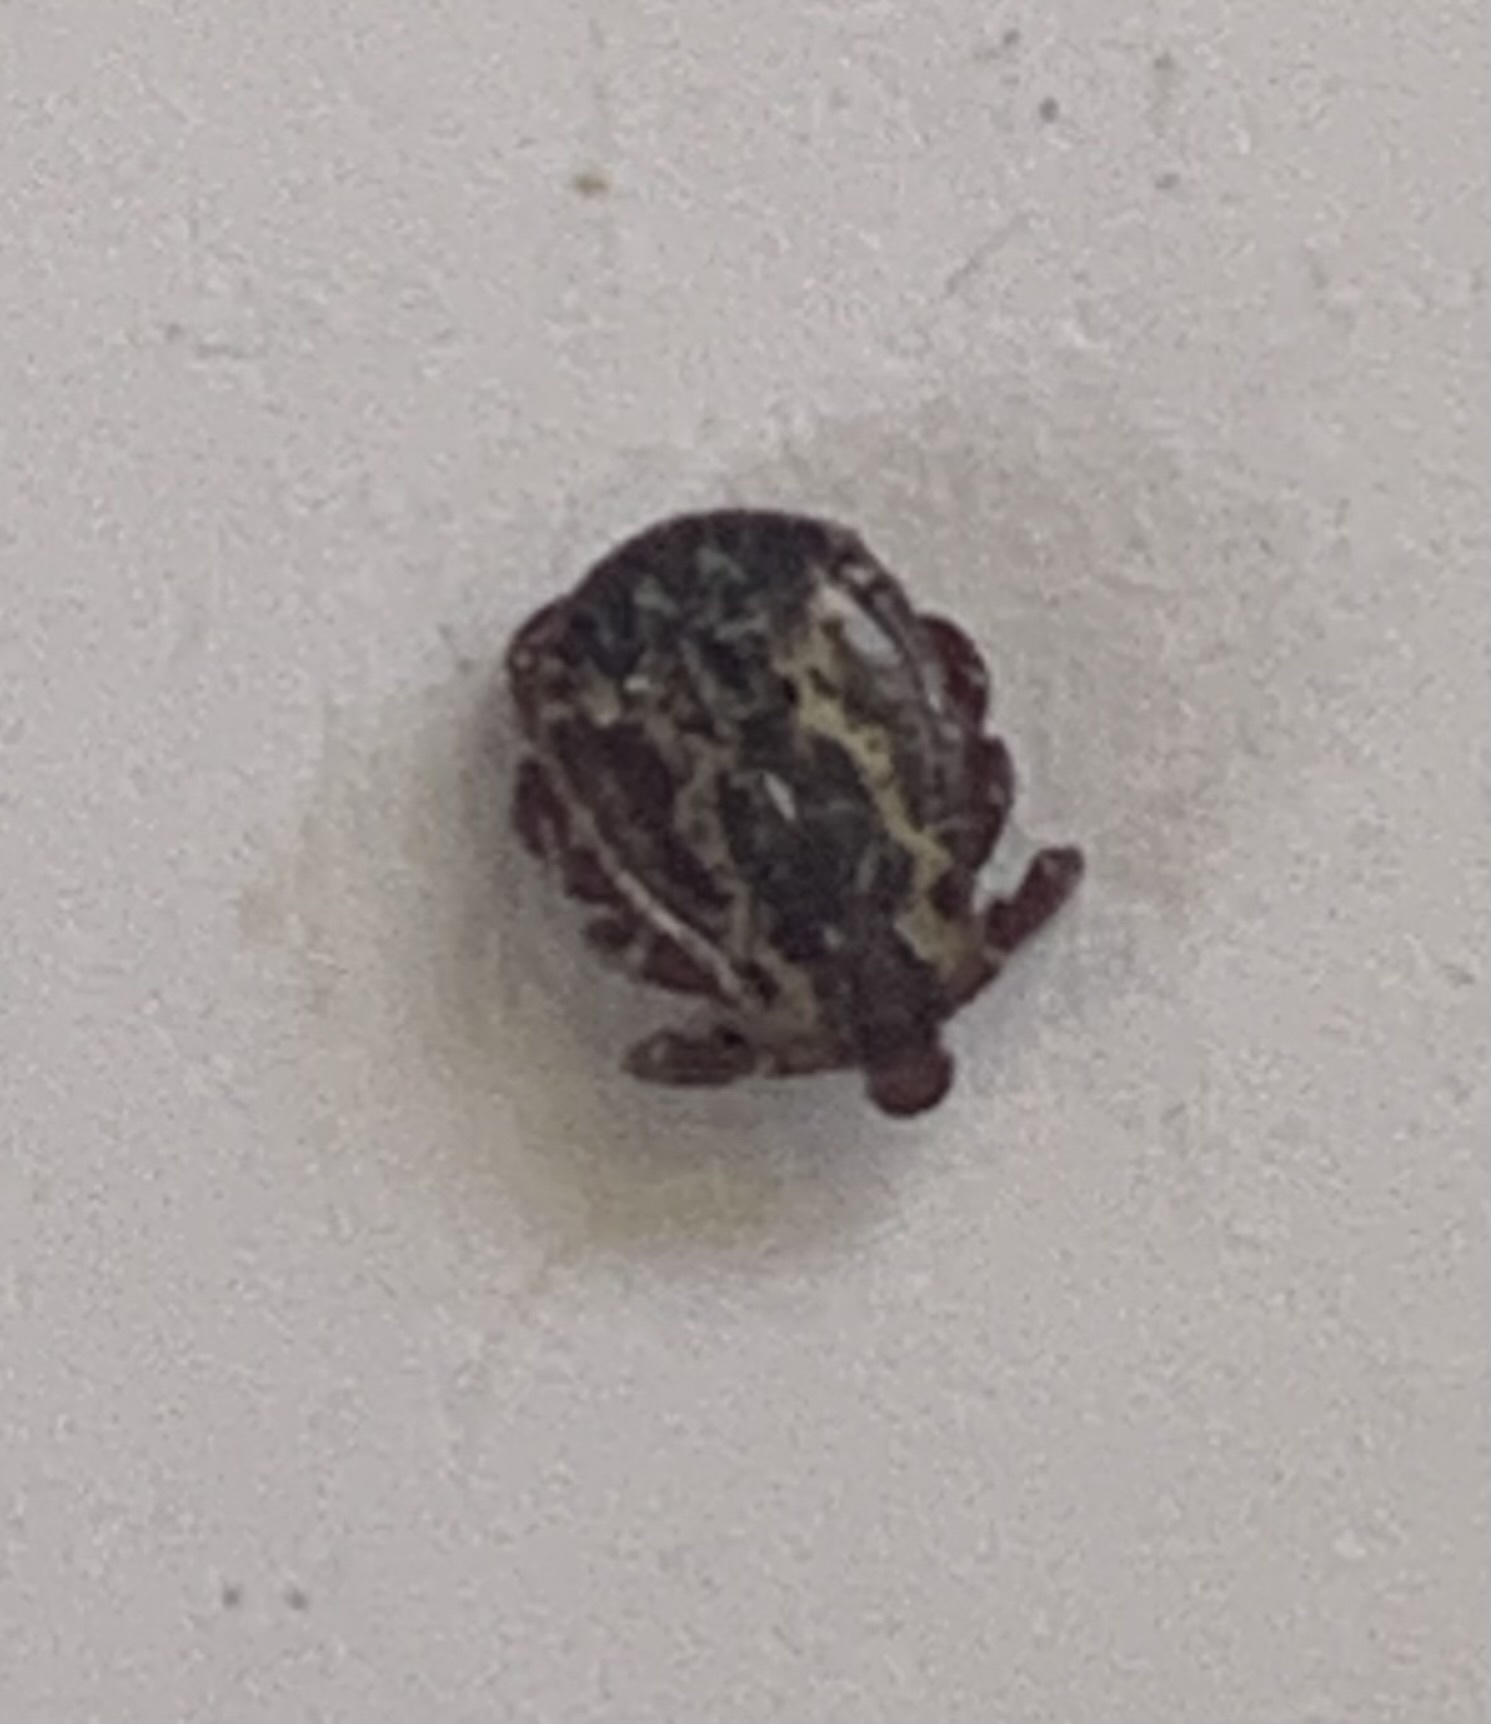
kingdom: Animalia
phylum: Arthropoda
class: Arachnida
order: Ixodida
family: Ixodidae
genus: Dermacentor
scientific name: Dermacentor variabilis
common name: American dog tick
